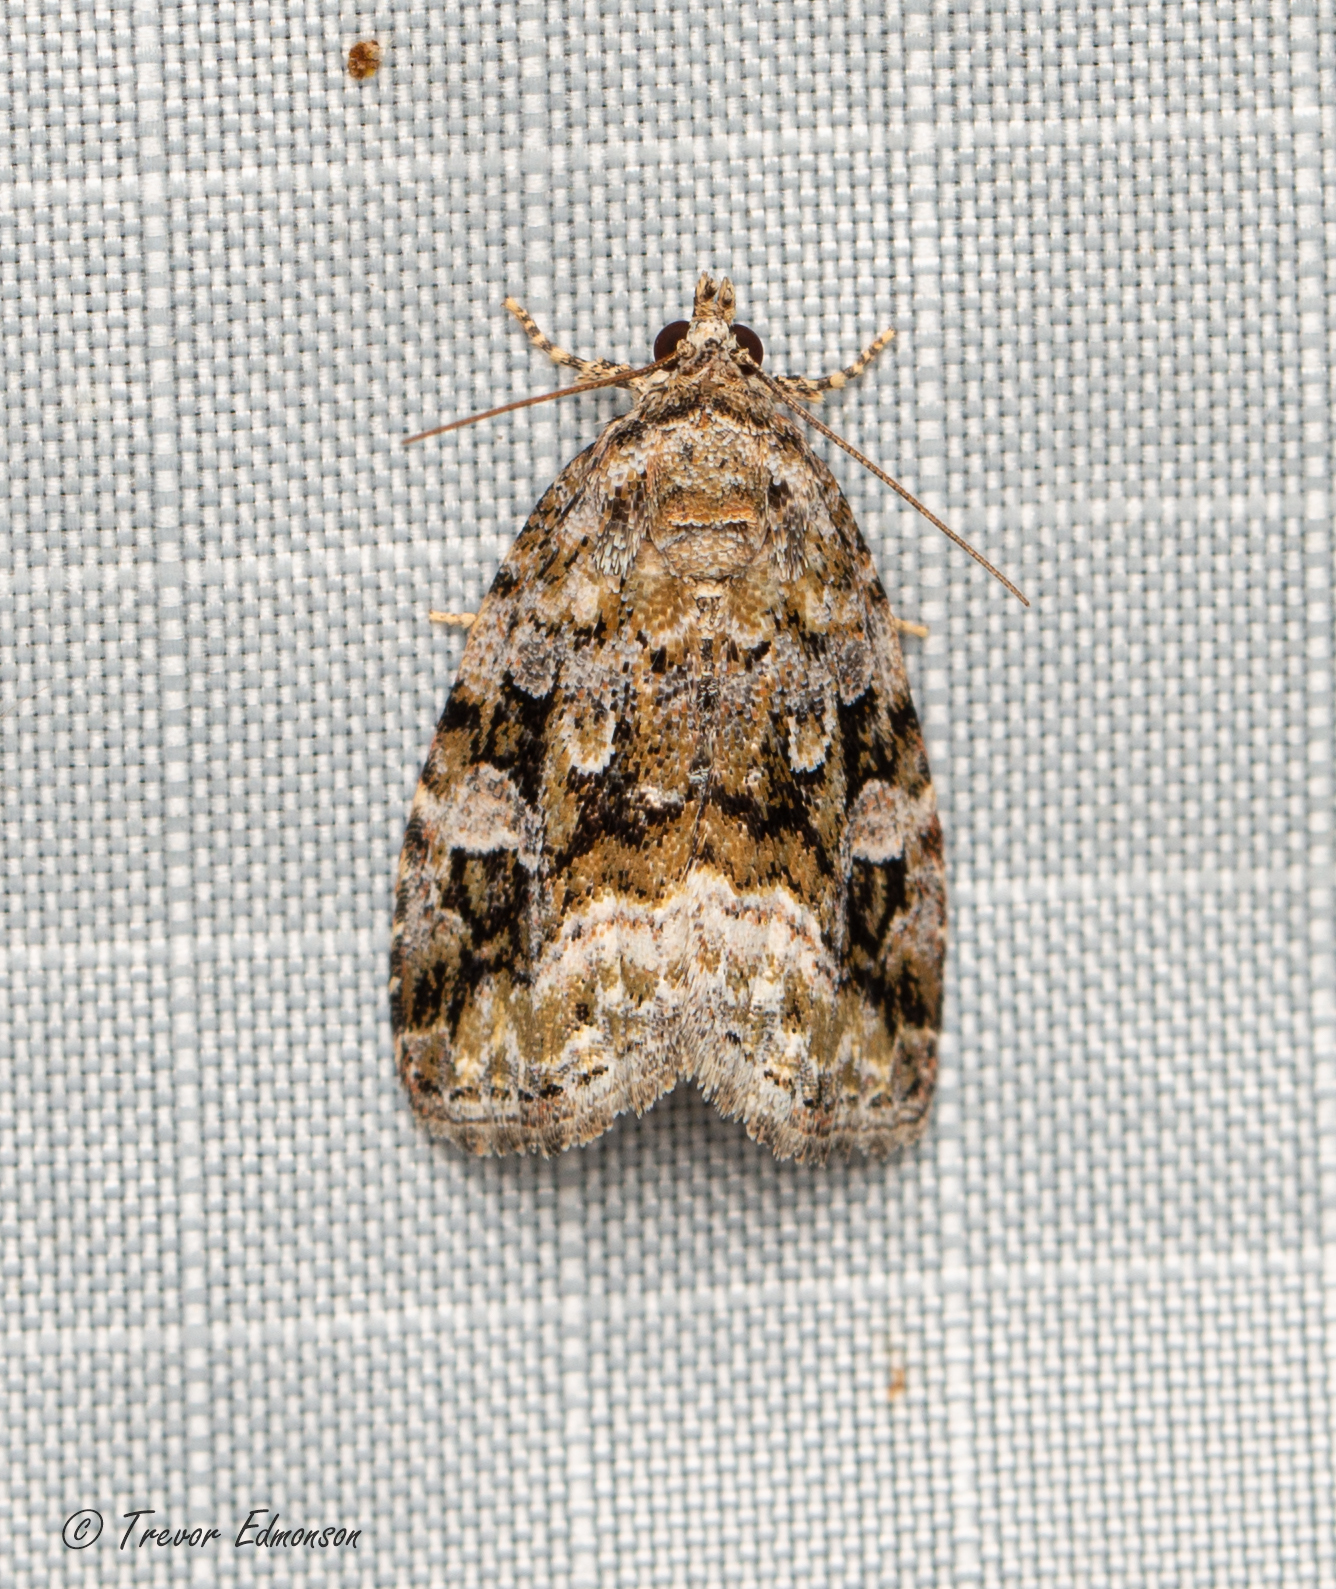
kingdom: Animalia
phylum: Arthropoda
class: Insecta
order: Lepidoptera
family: Noctuidae
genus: Protodeltote
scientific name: Protodeltote muscosula
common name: Large mossy glyph
